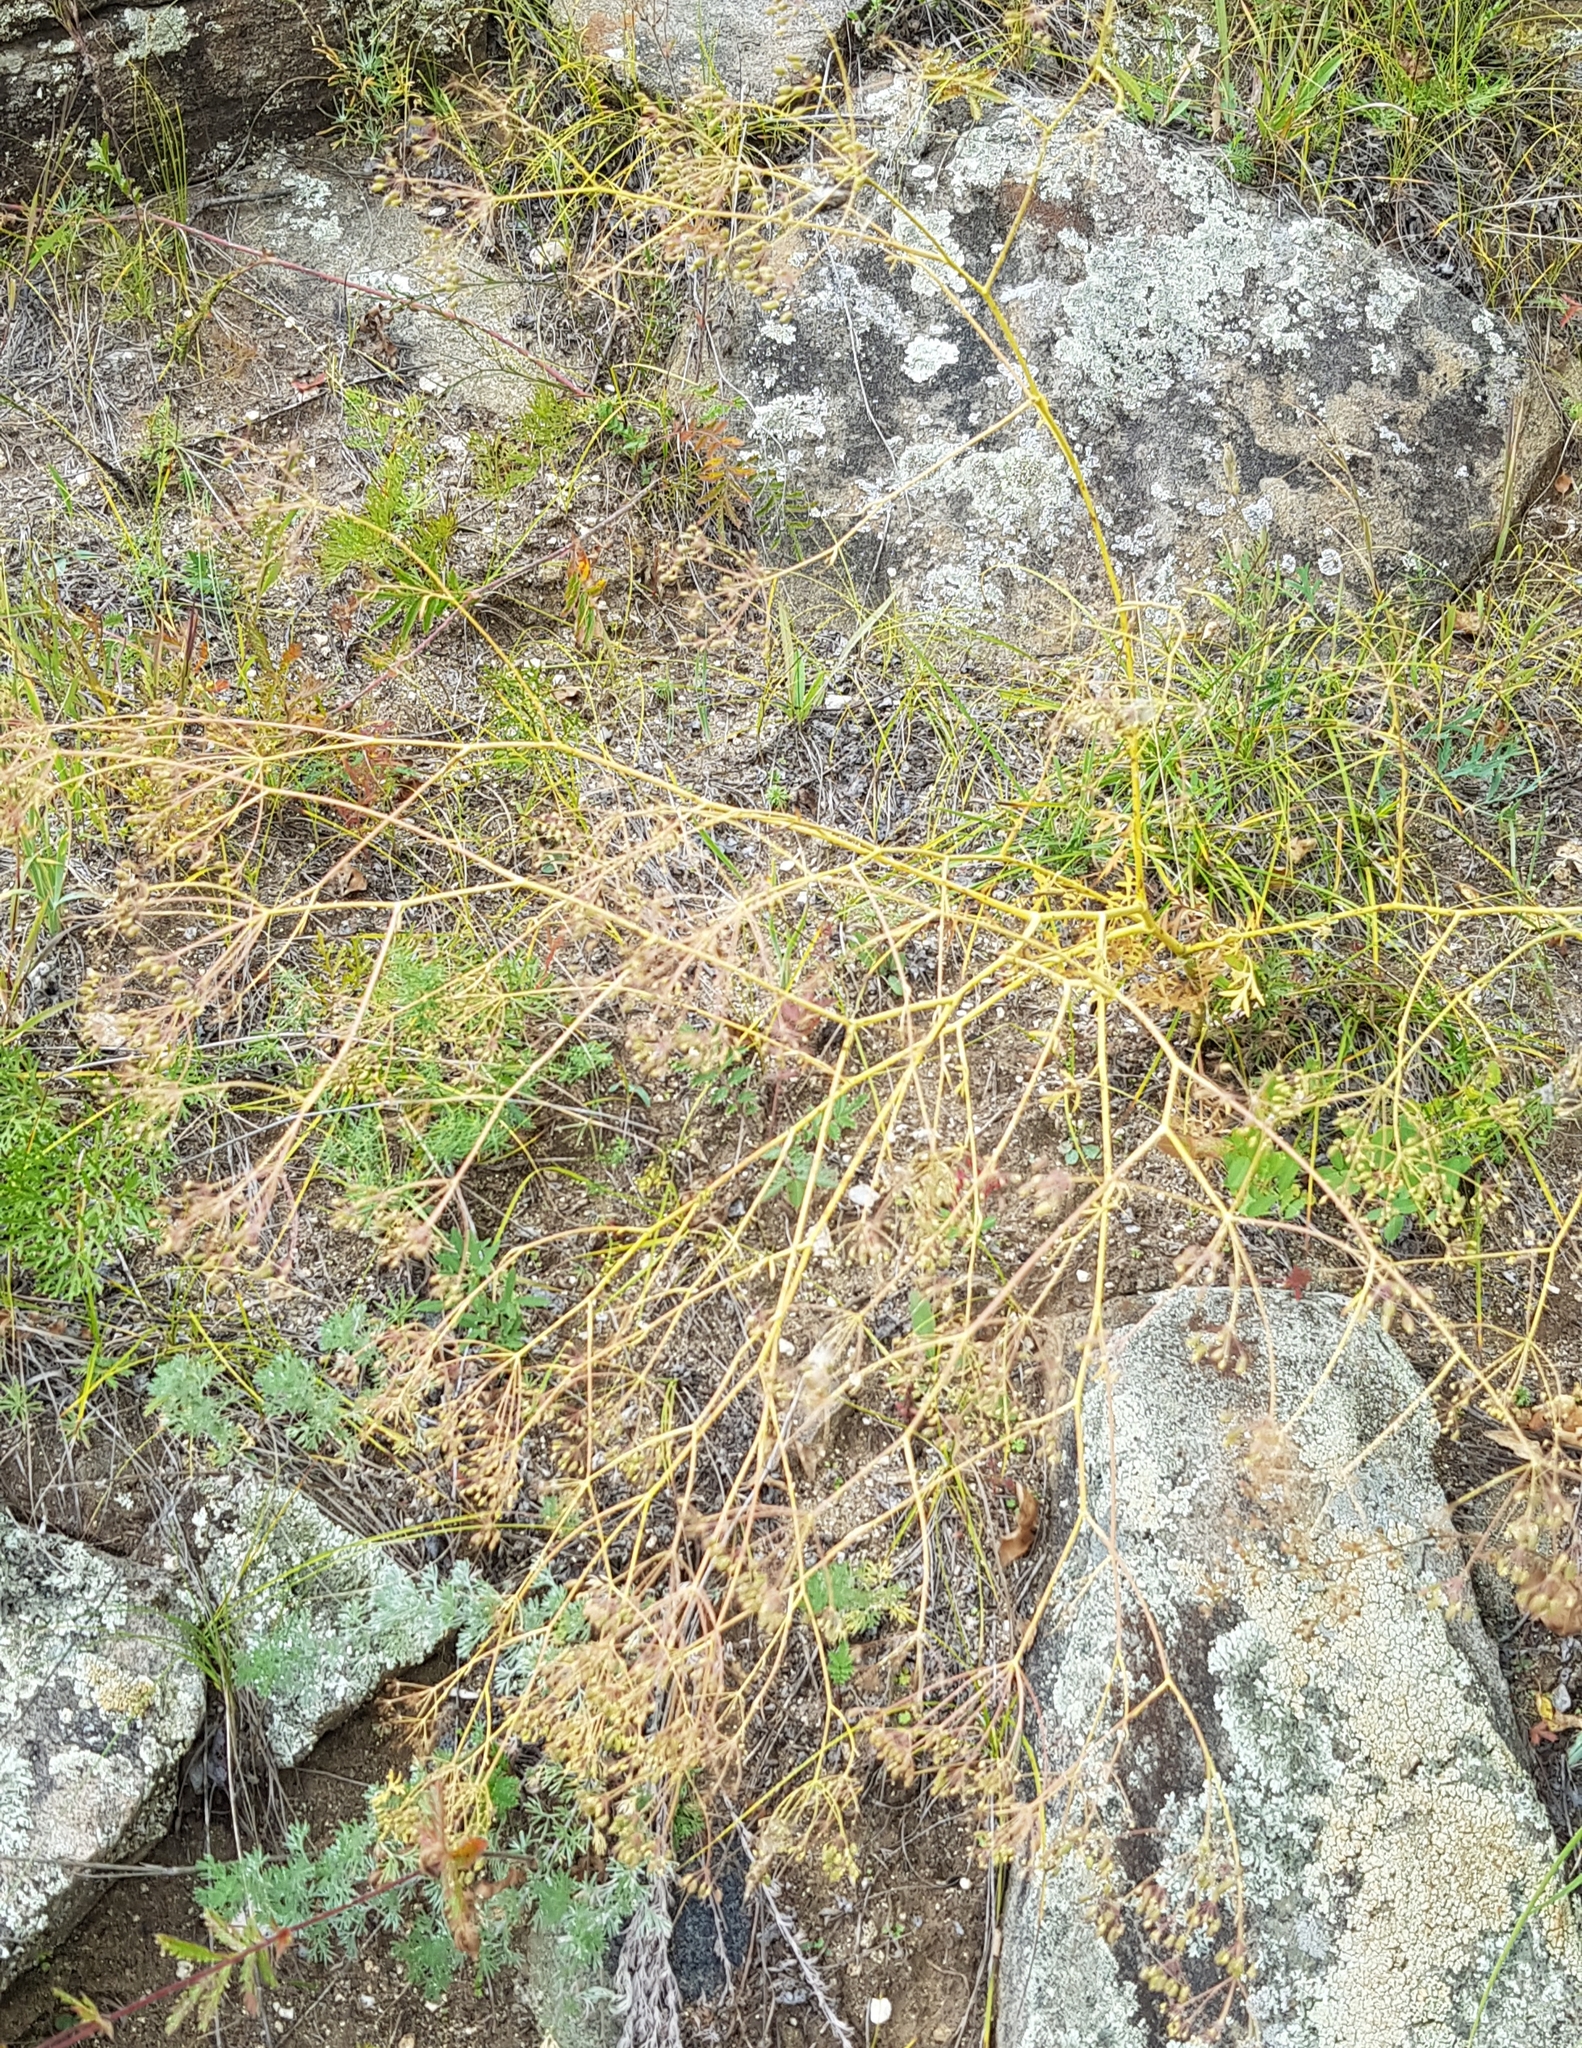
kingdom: Plantae
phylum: Tracheophyta
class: Magnoliopsida
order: Apiales
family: Apiaceae
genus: Saposhnikovia
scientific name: Saposhnikovia divaricata
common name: Siler
